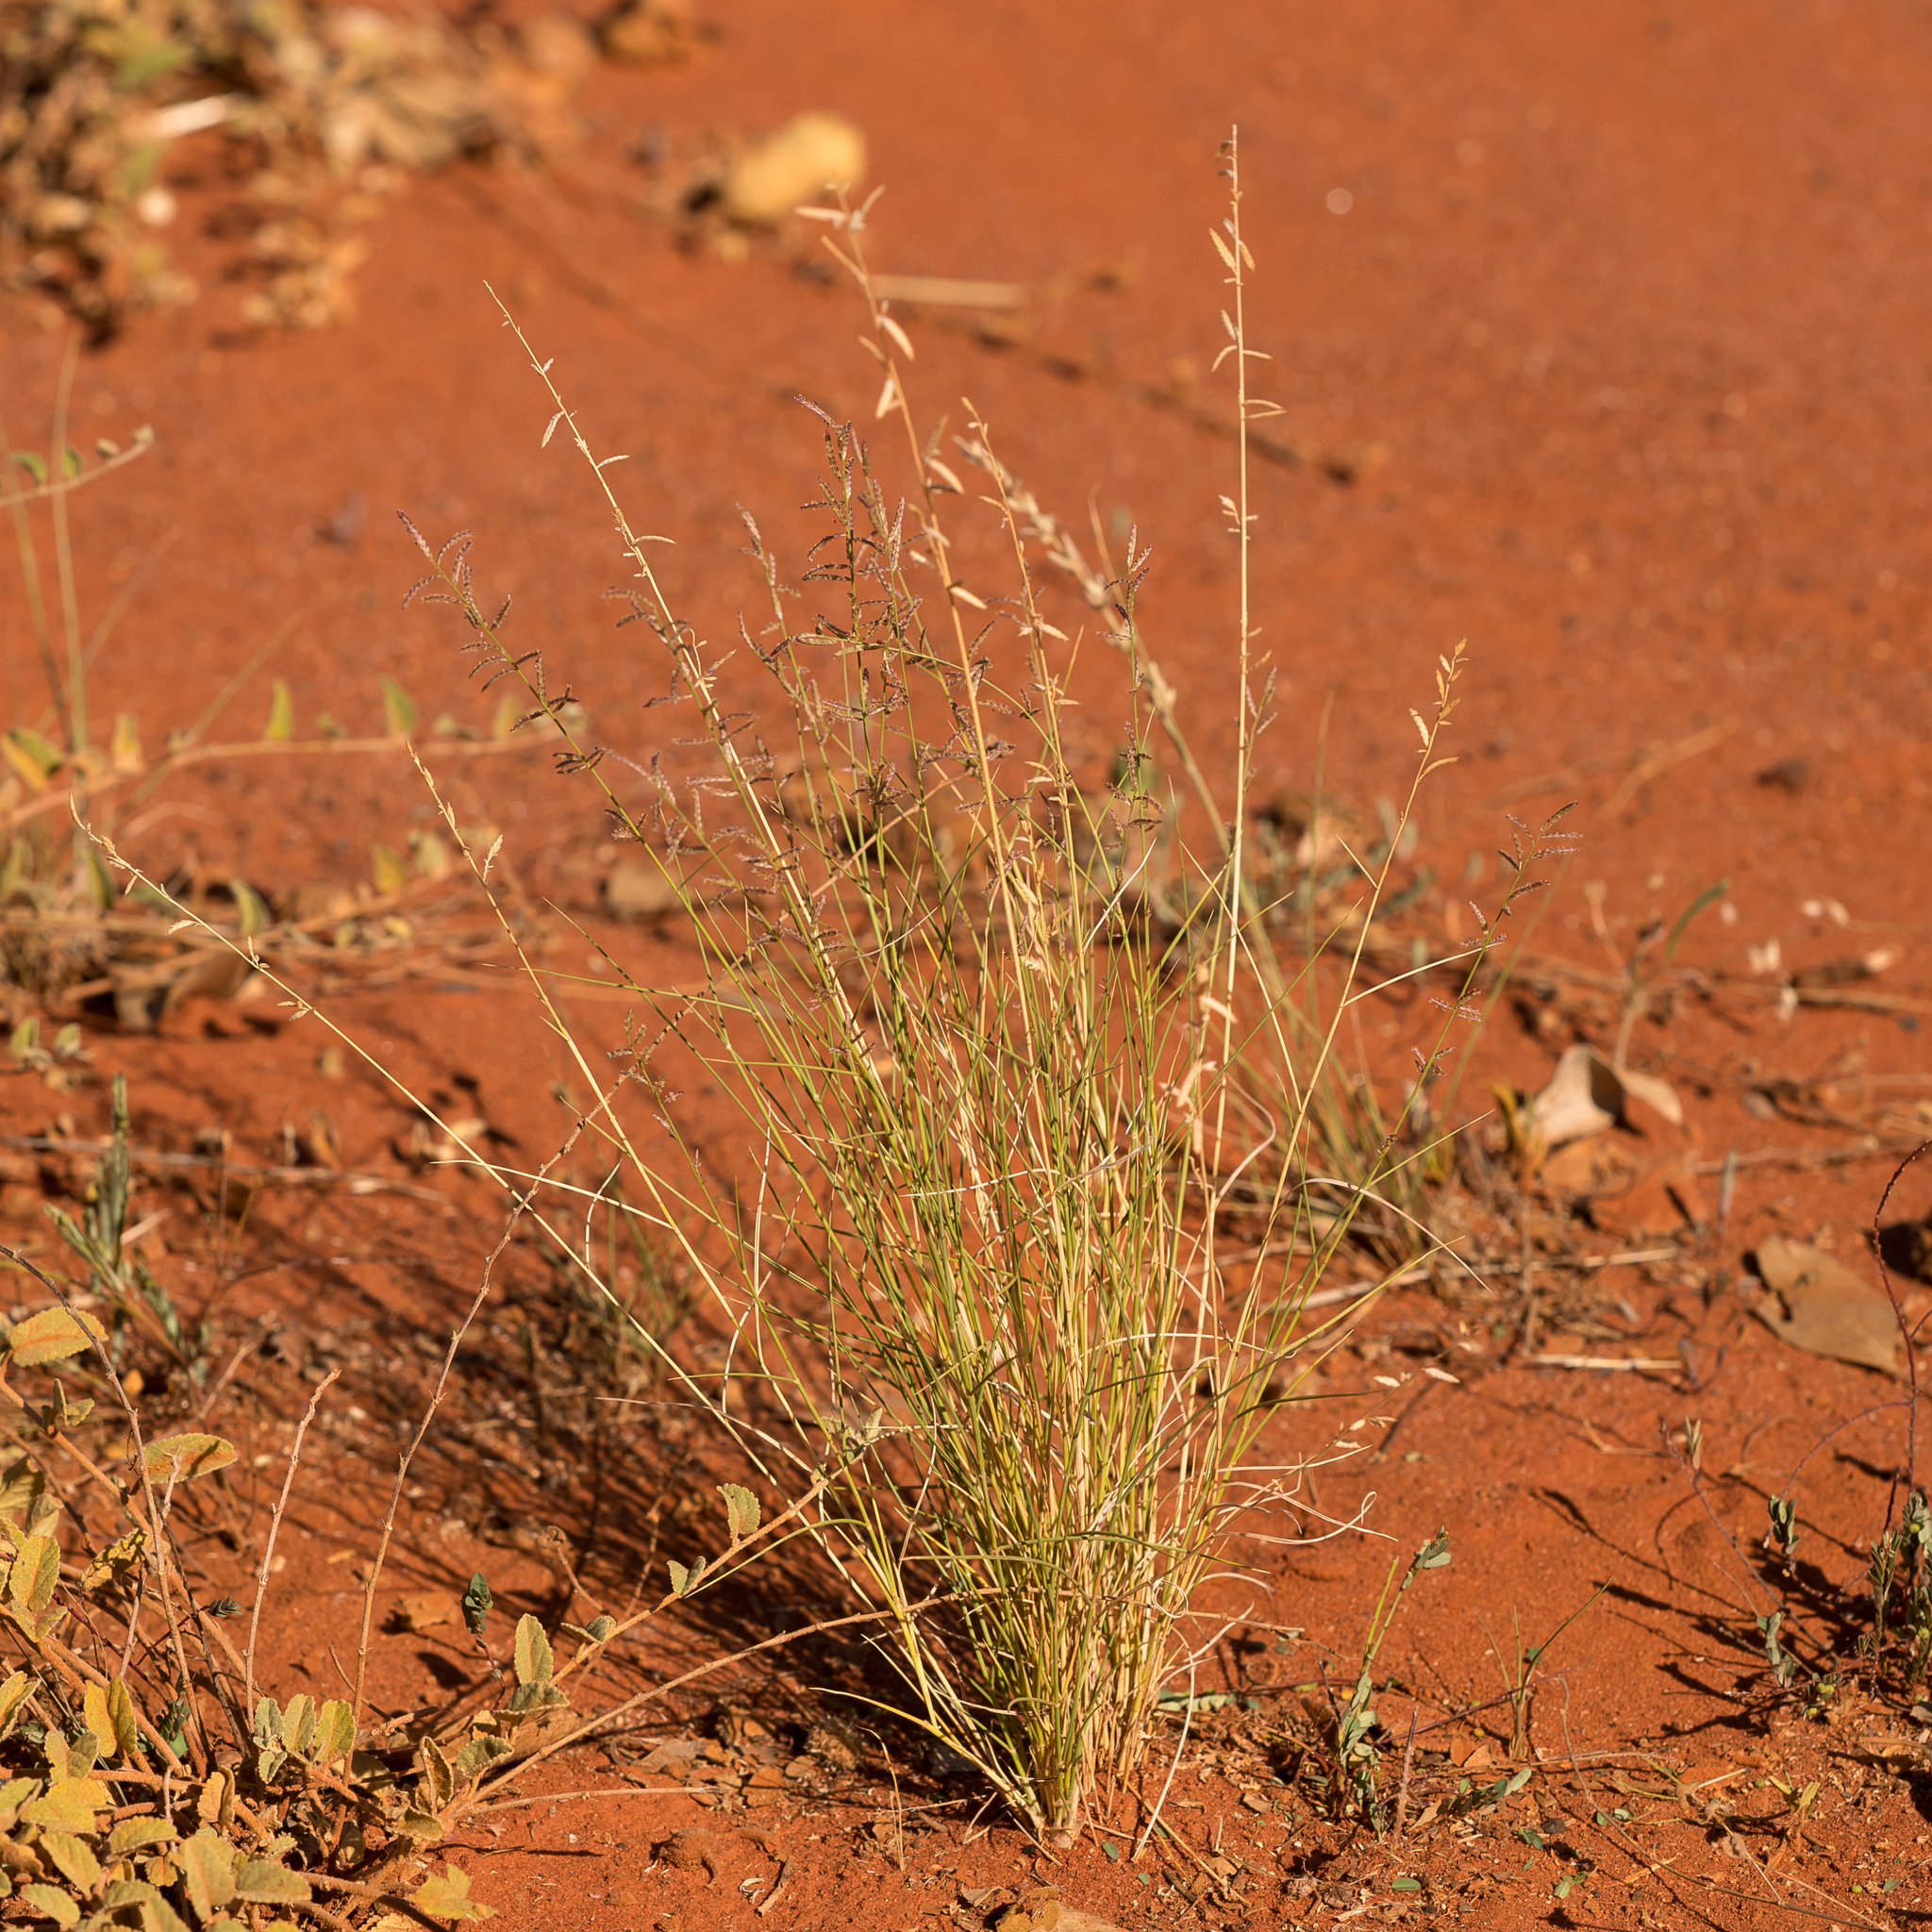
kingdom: Plantae
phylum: Tracheophyta
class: Liliopsida
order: Poales
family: Poaceae
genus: Eragrostis
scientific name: Eragrostis eriopoda
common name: Plain neverfail
